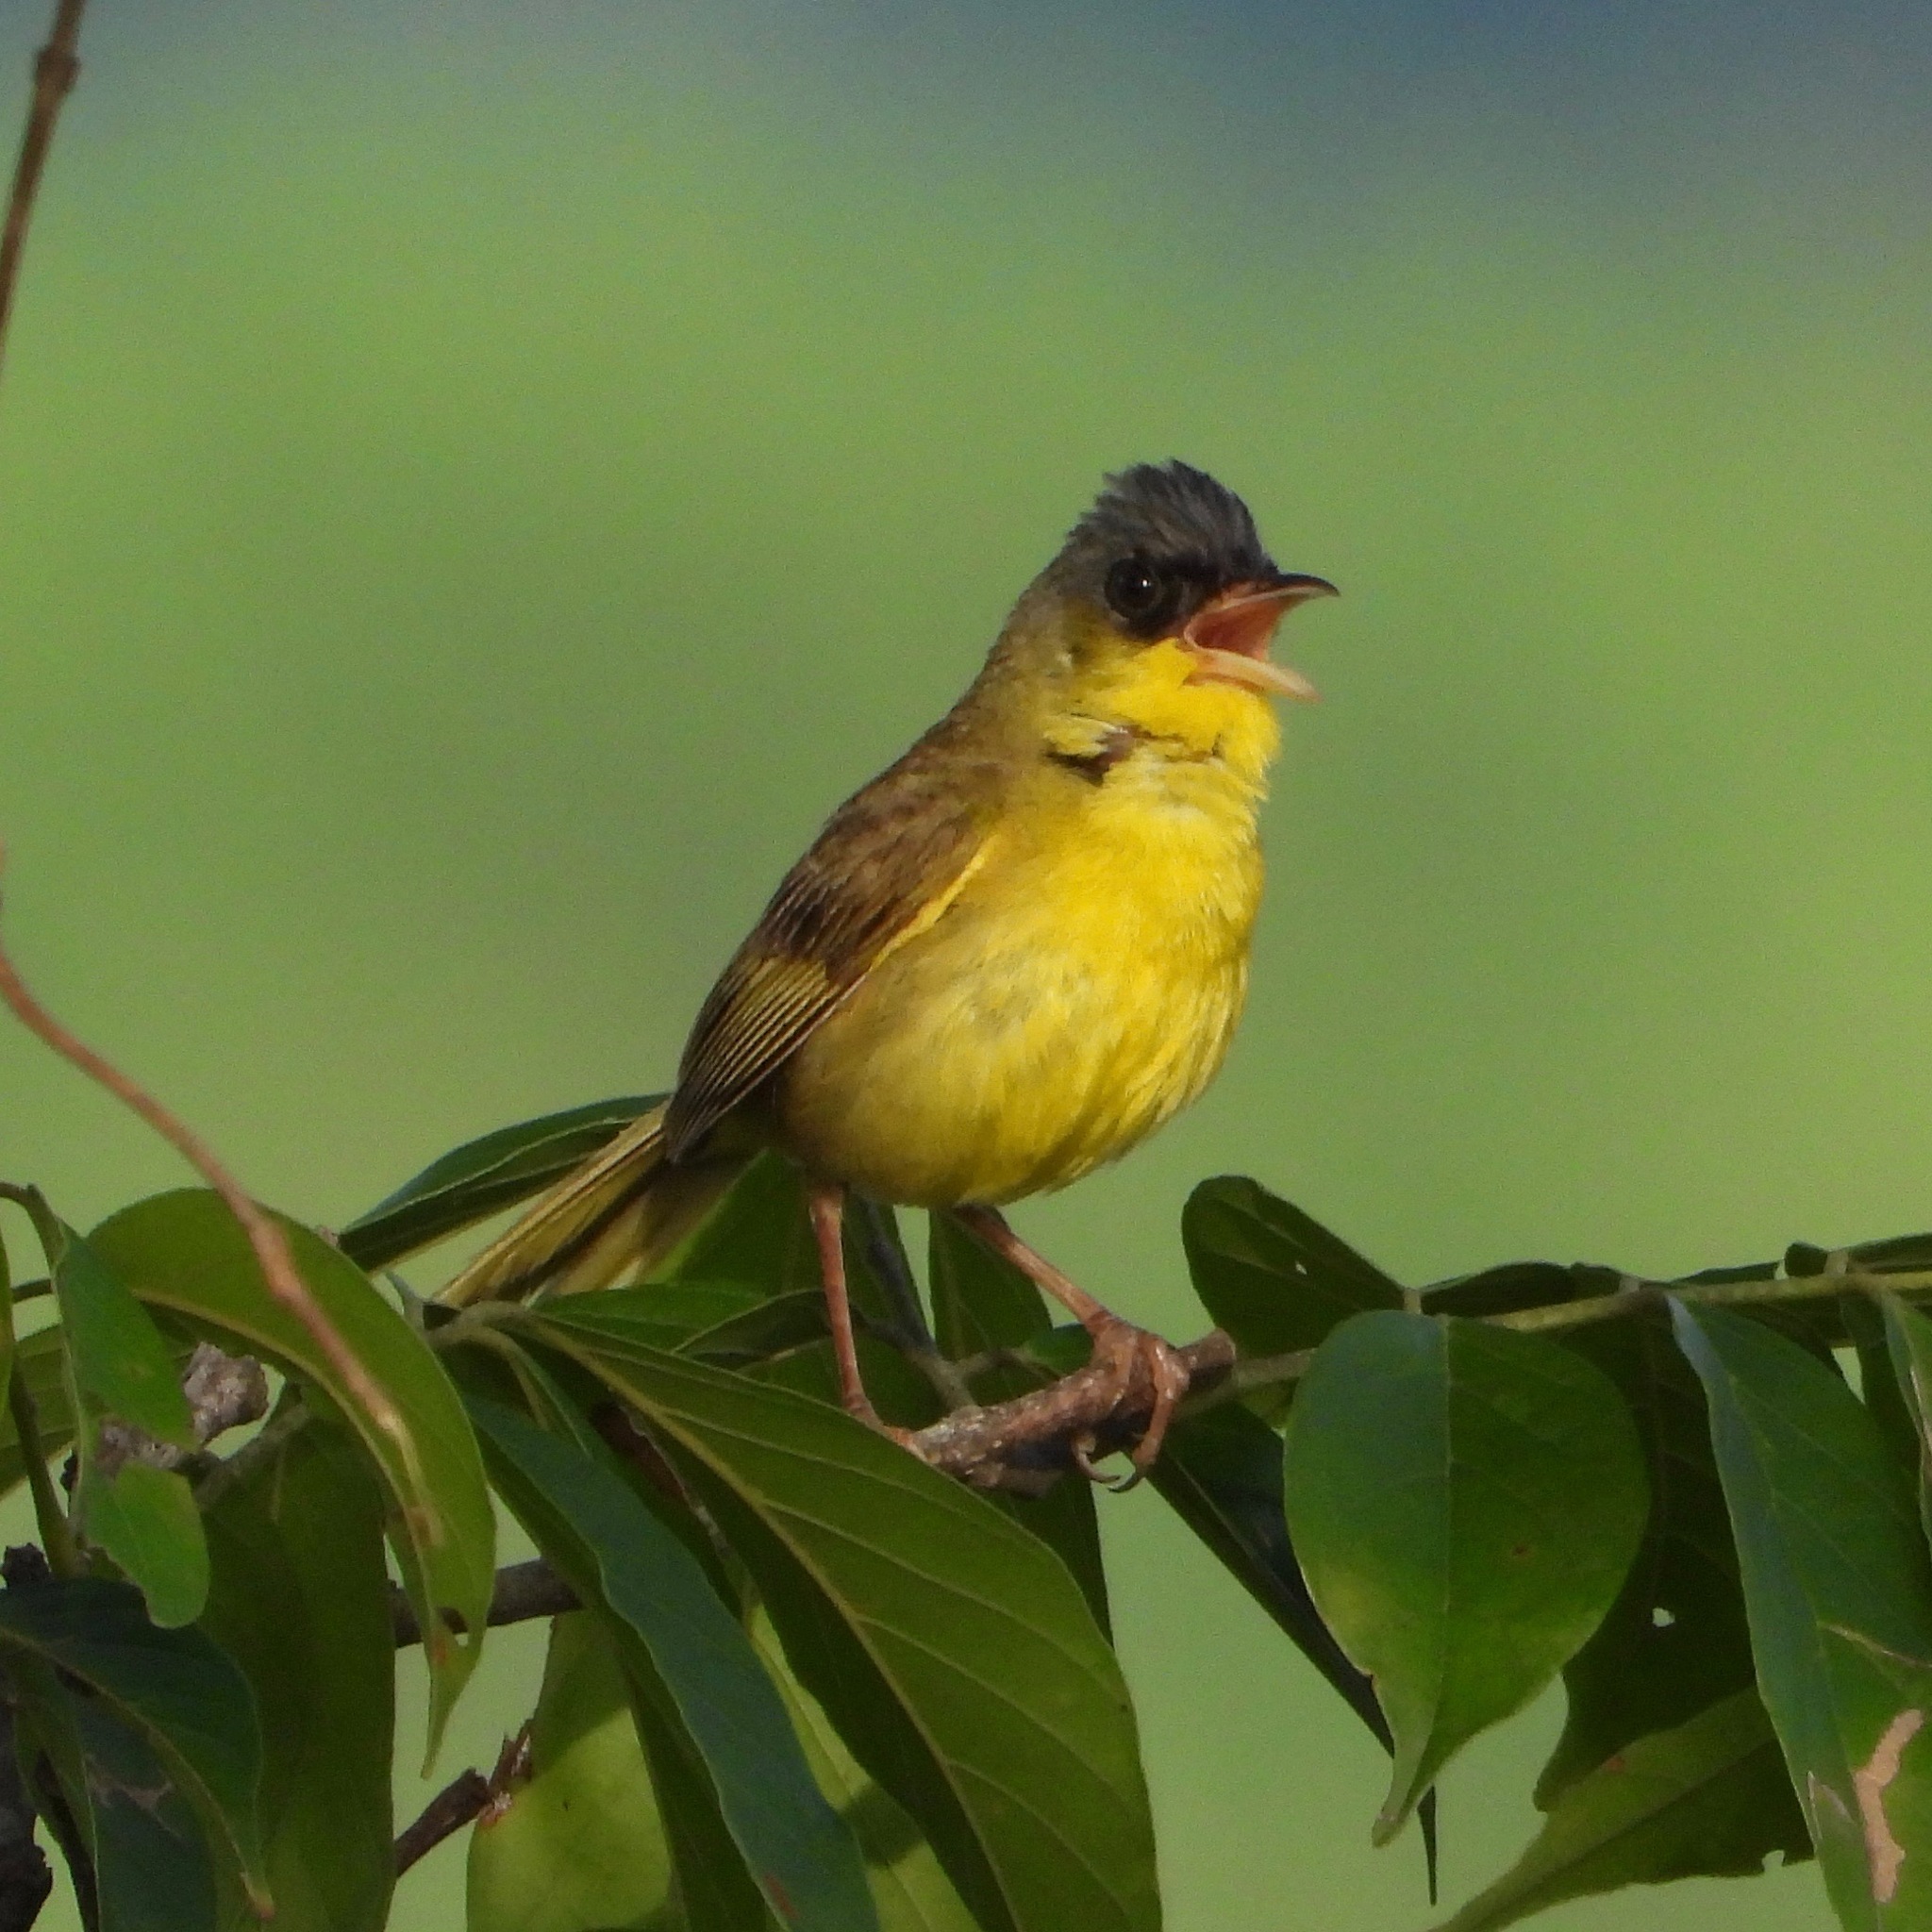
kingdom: Animalia
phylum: Chordata
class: Aves
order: Passeriformes
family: Parulidae
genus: Geothlypis
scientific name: Geothlypis poliocephala
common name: Gray-crowned yellowthroat
